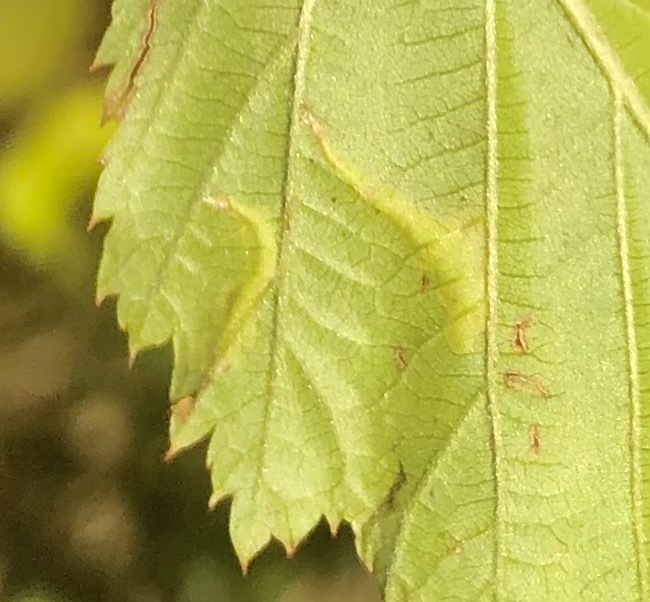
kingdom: Animalia
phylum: Arthropoda
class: Insecta
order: Lepidoptera
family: Tischeriidae
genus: Coptotriche
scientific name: Coptotriche aenea
